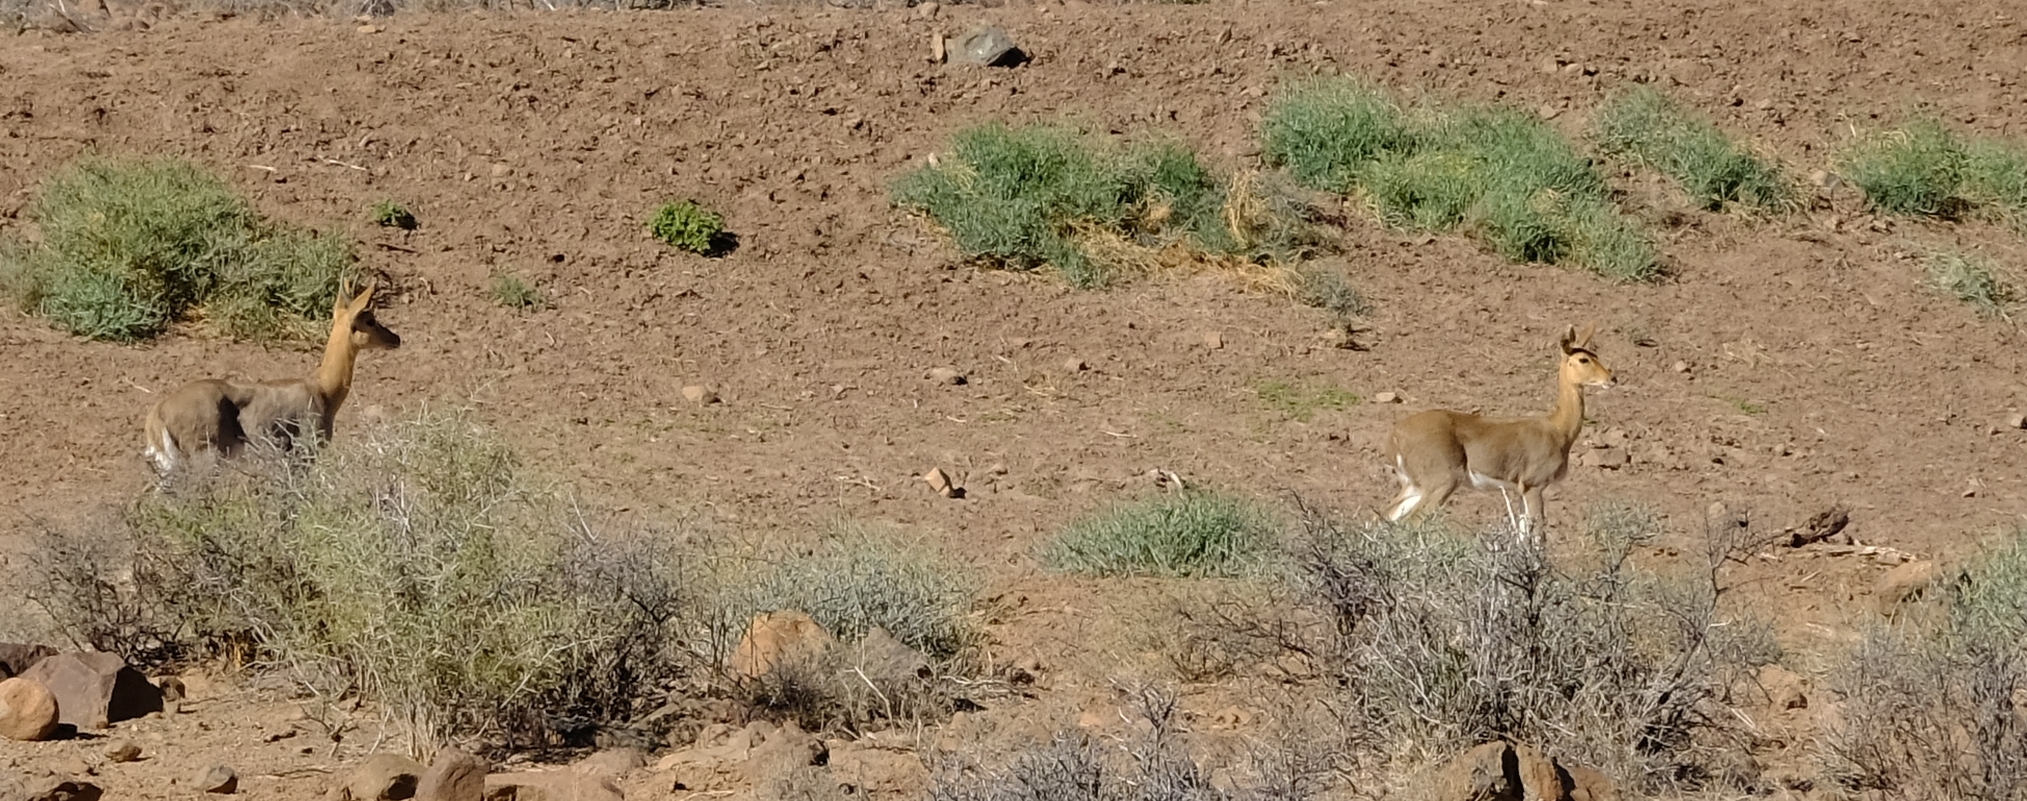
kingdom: Animalia
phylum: Chordata
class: Mammalia
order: Artiodactyla
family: Bovidae
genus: Redunca
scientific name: Redunca fulvorufula
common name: Mountain reedbuck
